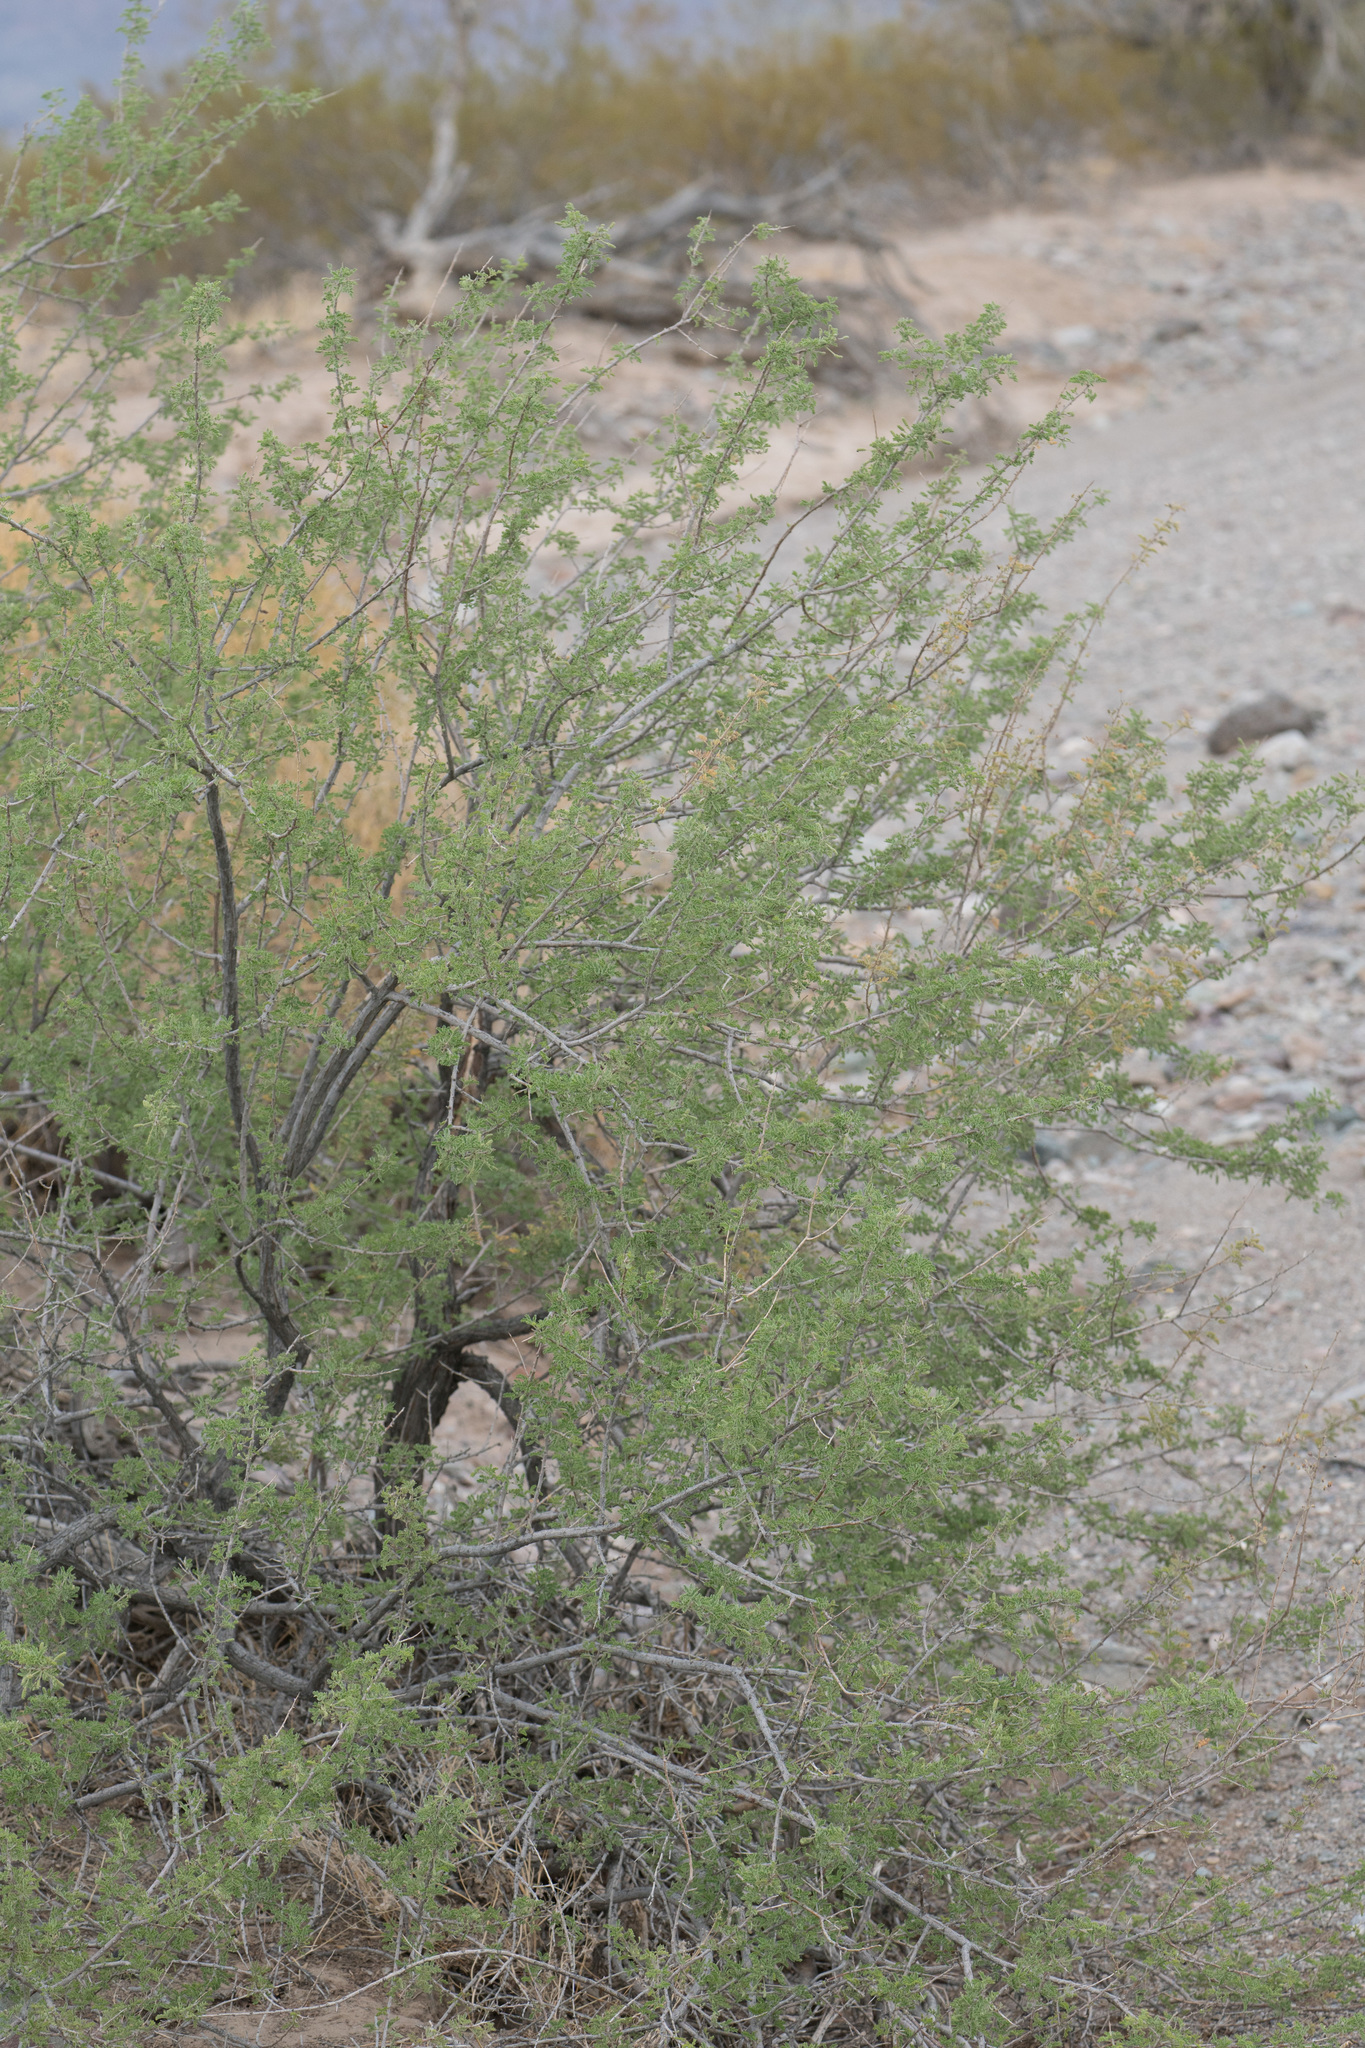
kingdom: Plantae
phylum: Tracheophyta
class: Magnoliopsida
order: Fabales
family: Fabaceae
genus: Senegalia
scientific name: Senegalia greggii
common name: Texas-mimosa
